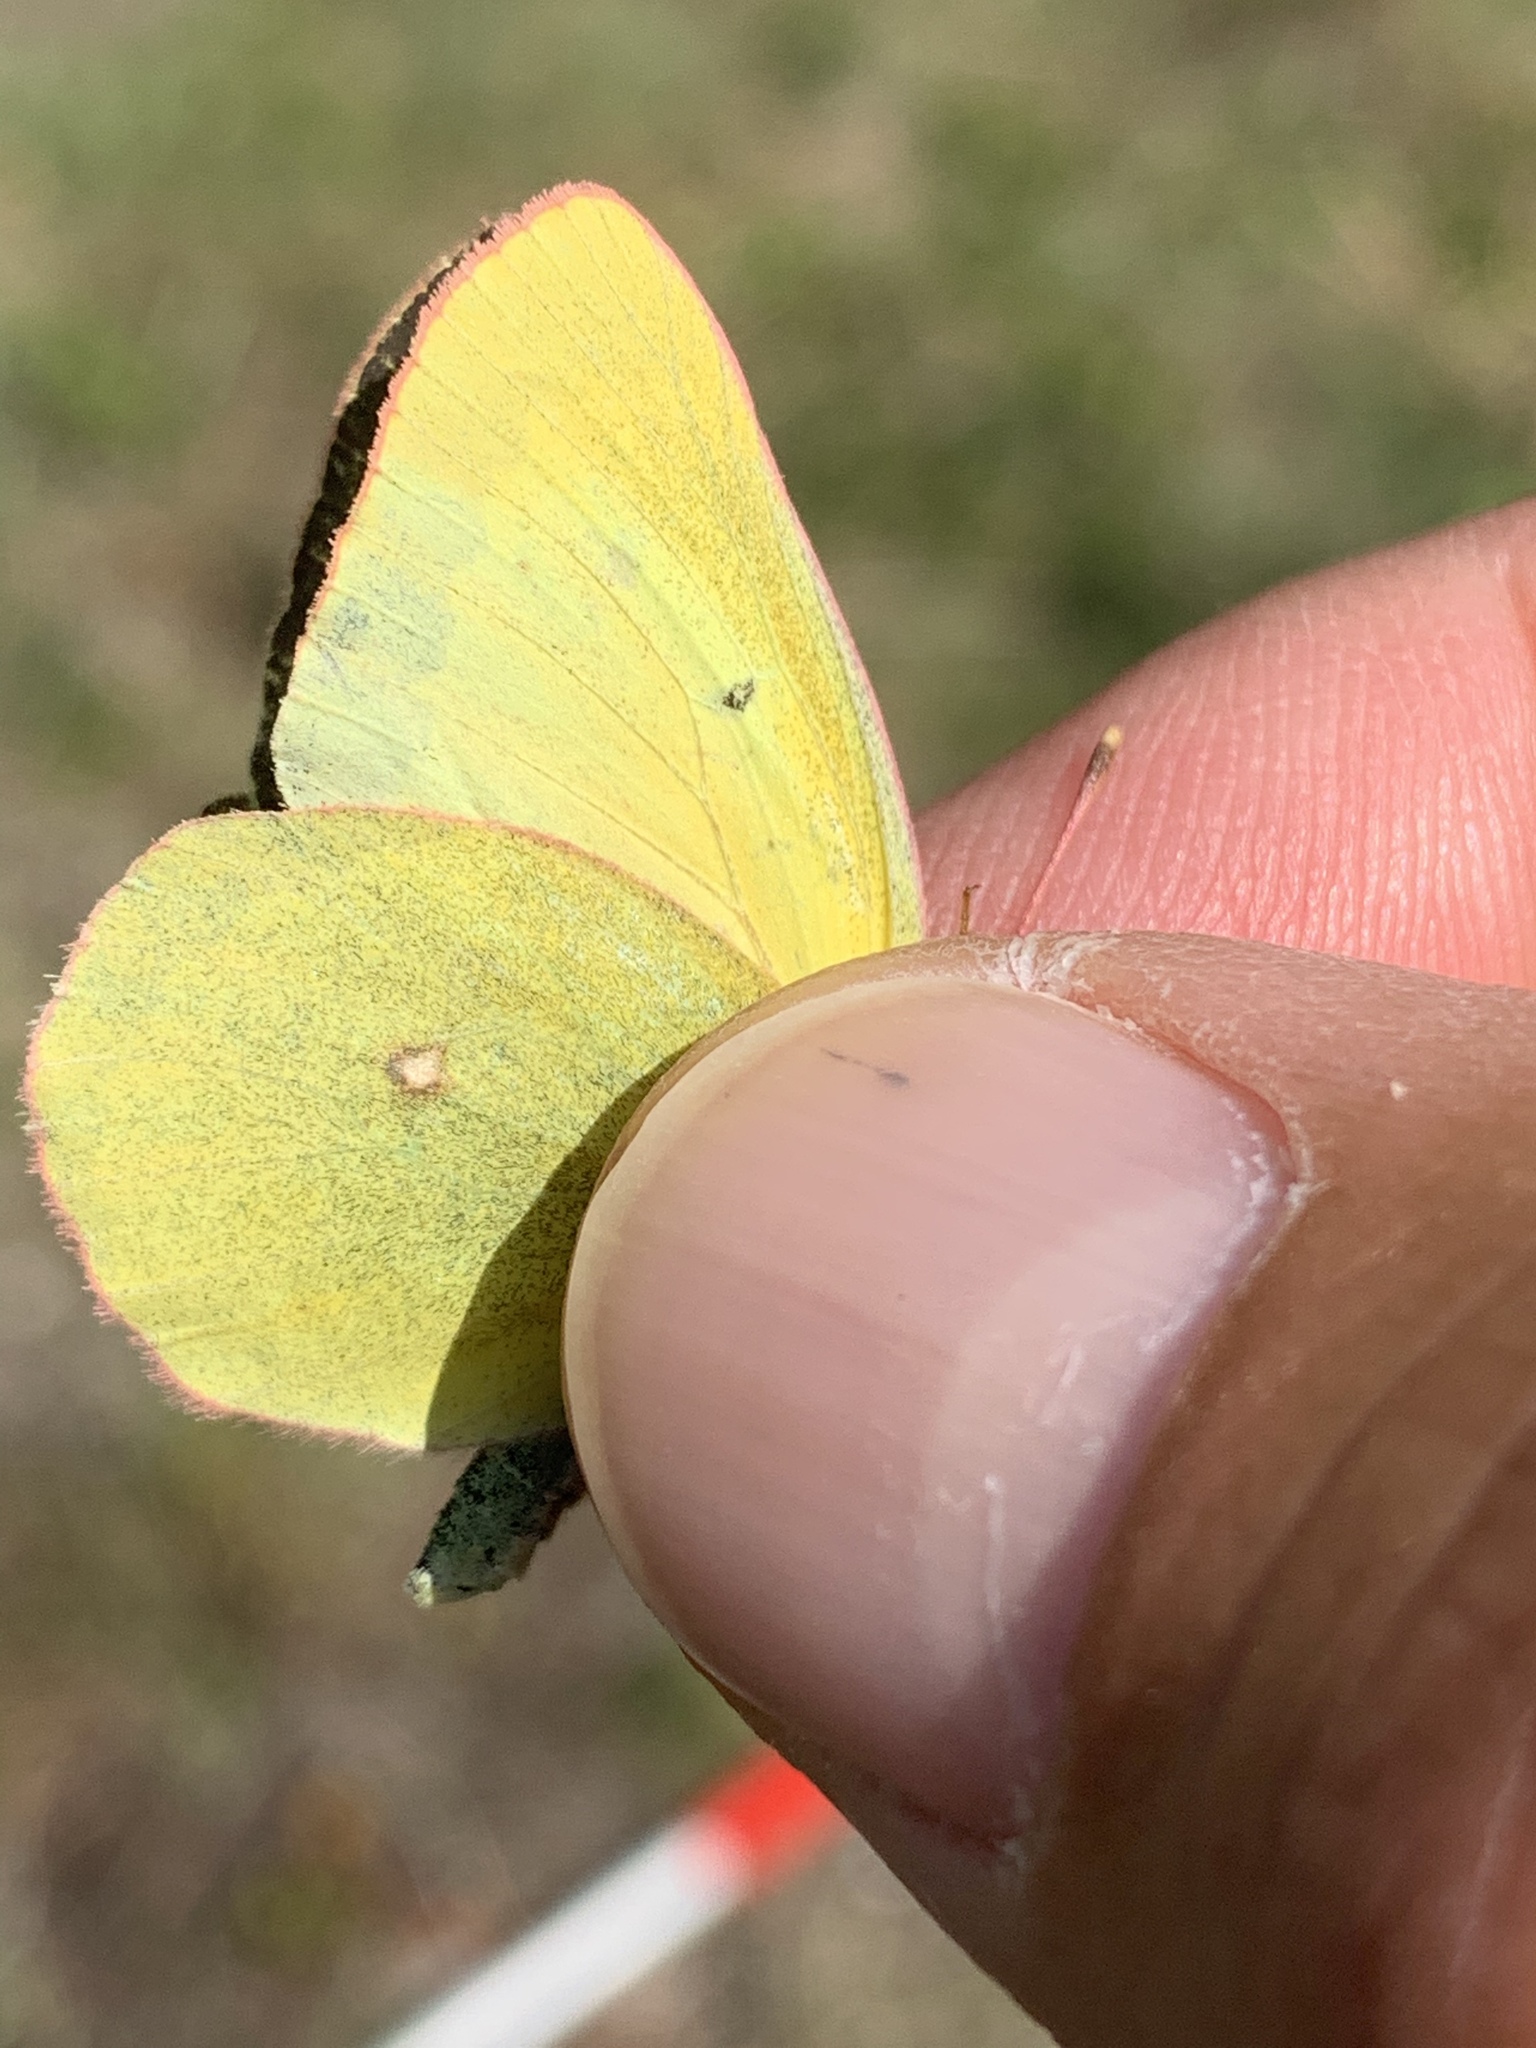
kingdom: Animalia
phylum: Arthropoda
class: Insecta
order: Lepidoptera
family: Pieridae
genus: Colias
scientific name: Colias christina
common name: Christina sulphur
